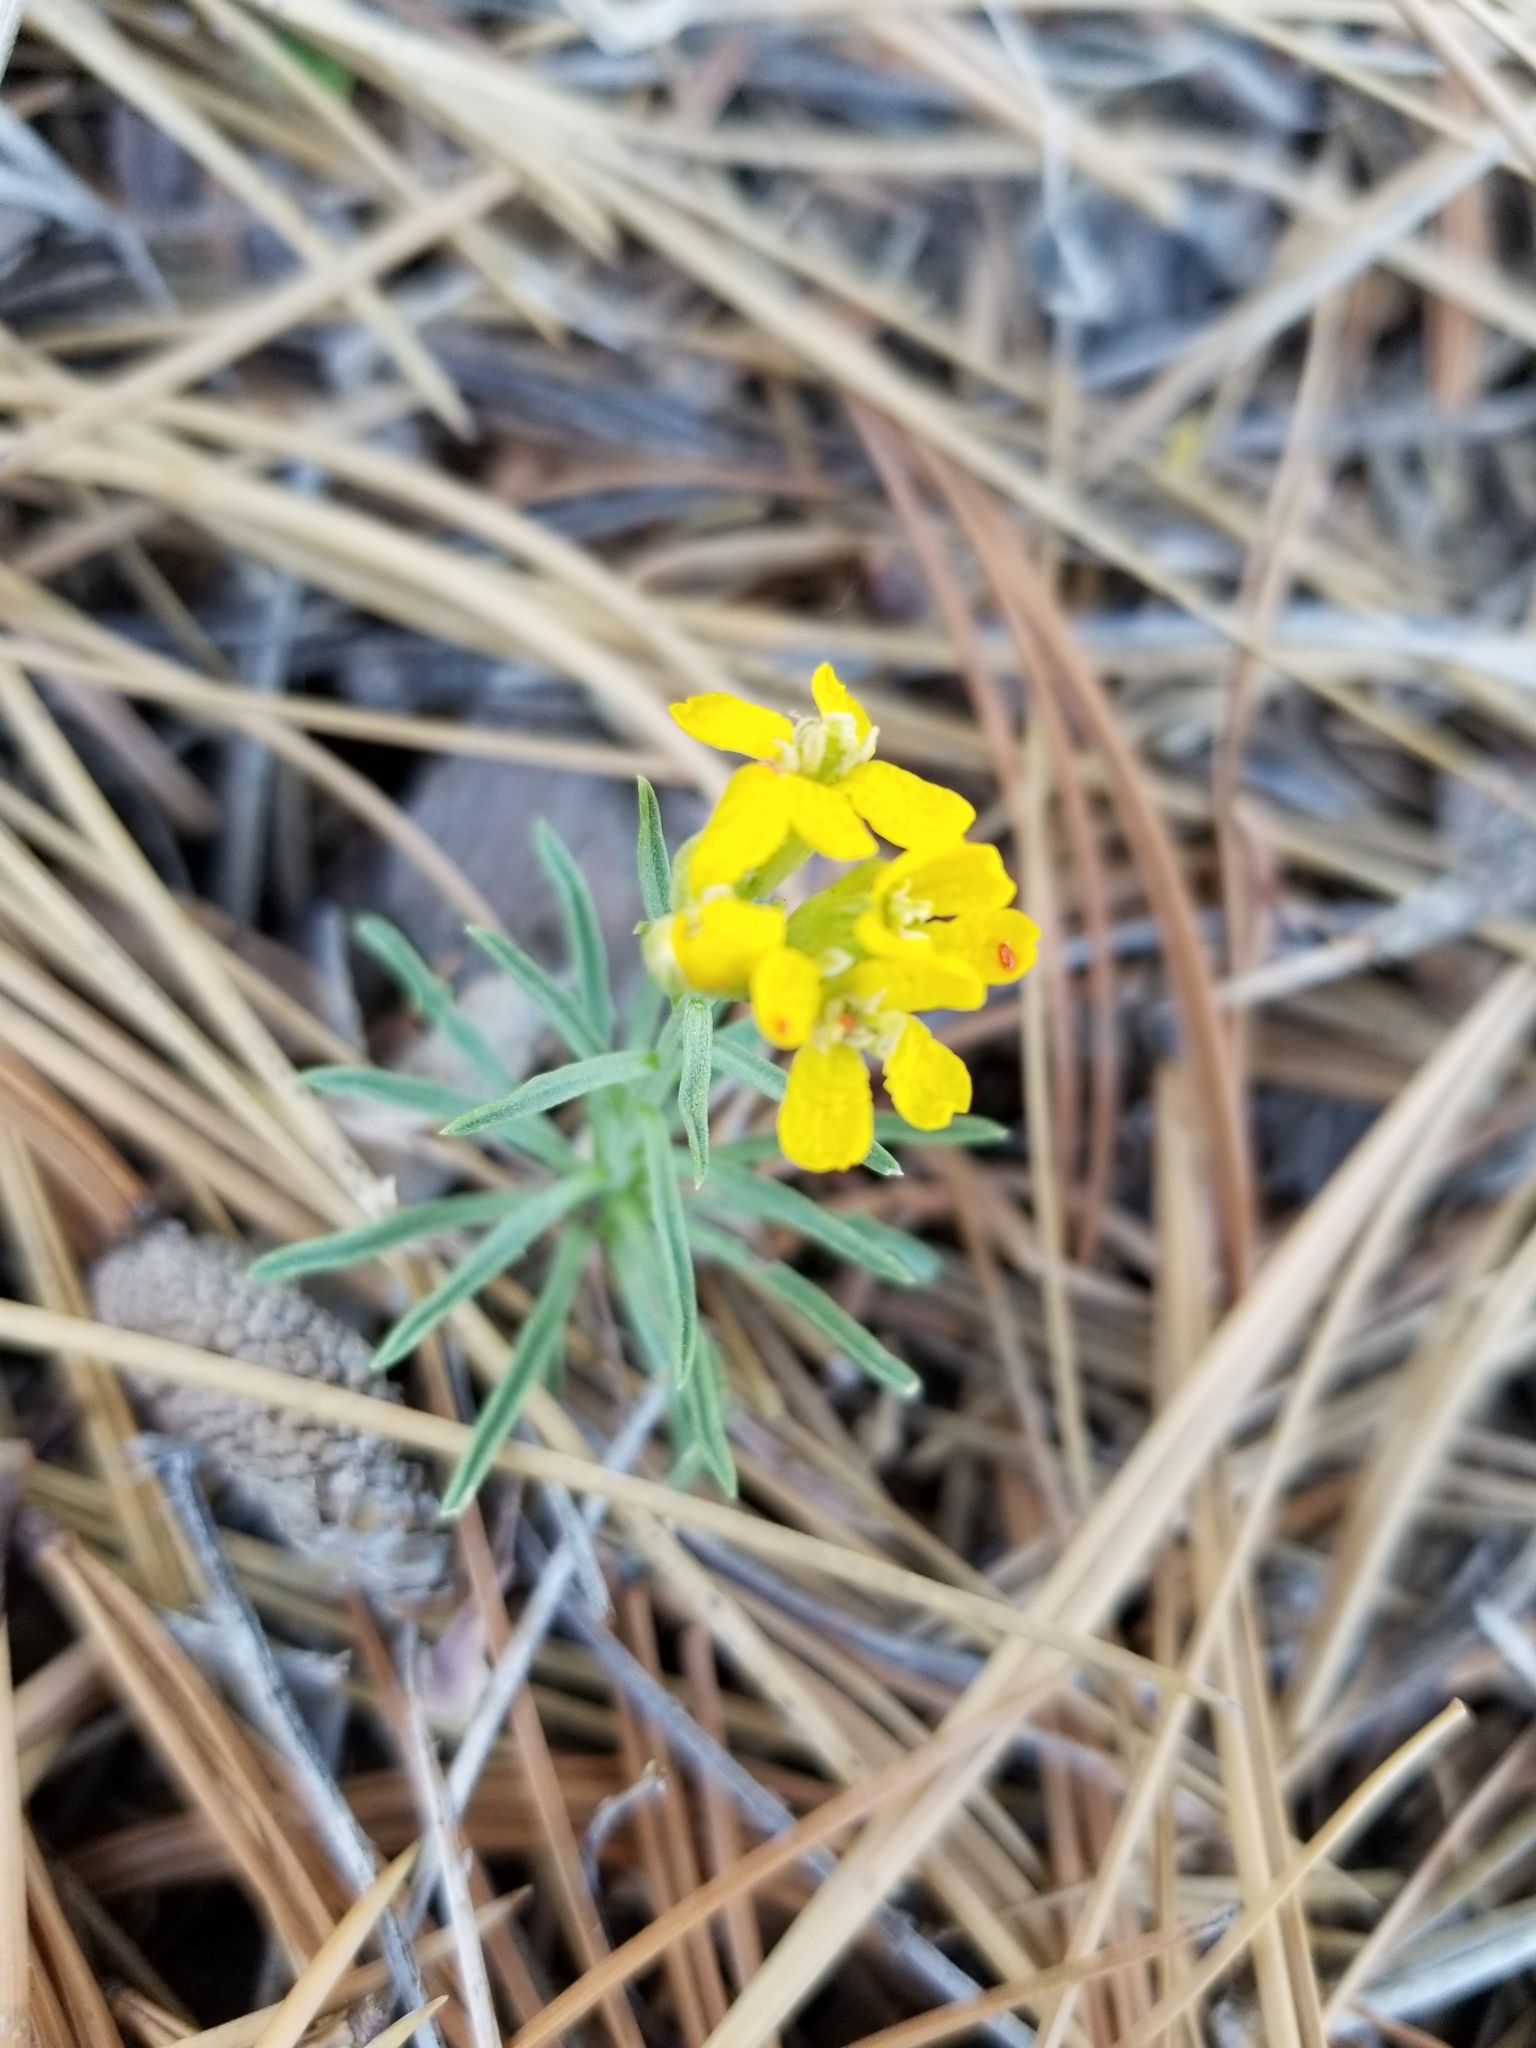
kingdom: Plantae
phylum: Tracheophyta
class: Magnoliopsida
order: Brassicales
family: Brassicaceae
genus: Erysimum
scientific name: Erysimum capitatum
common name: Western wallflower
